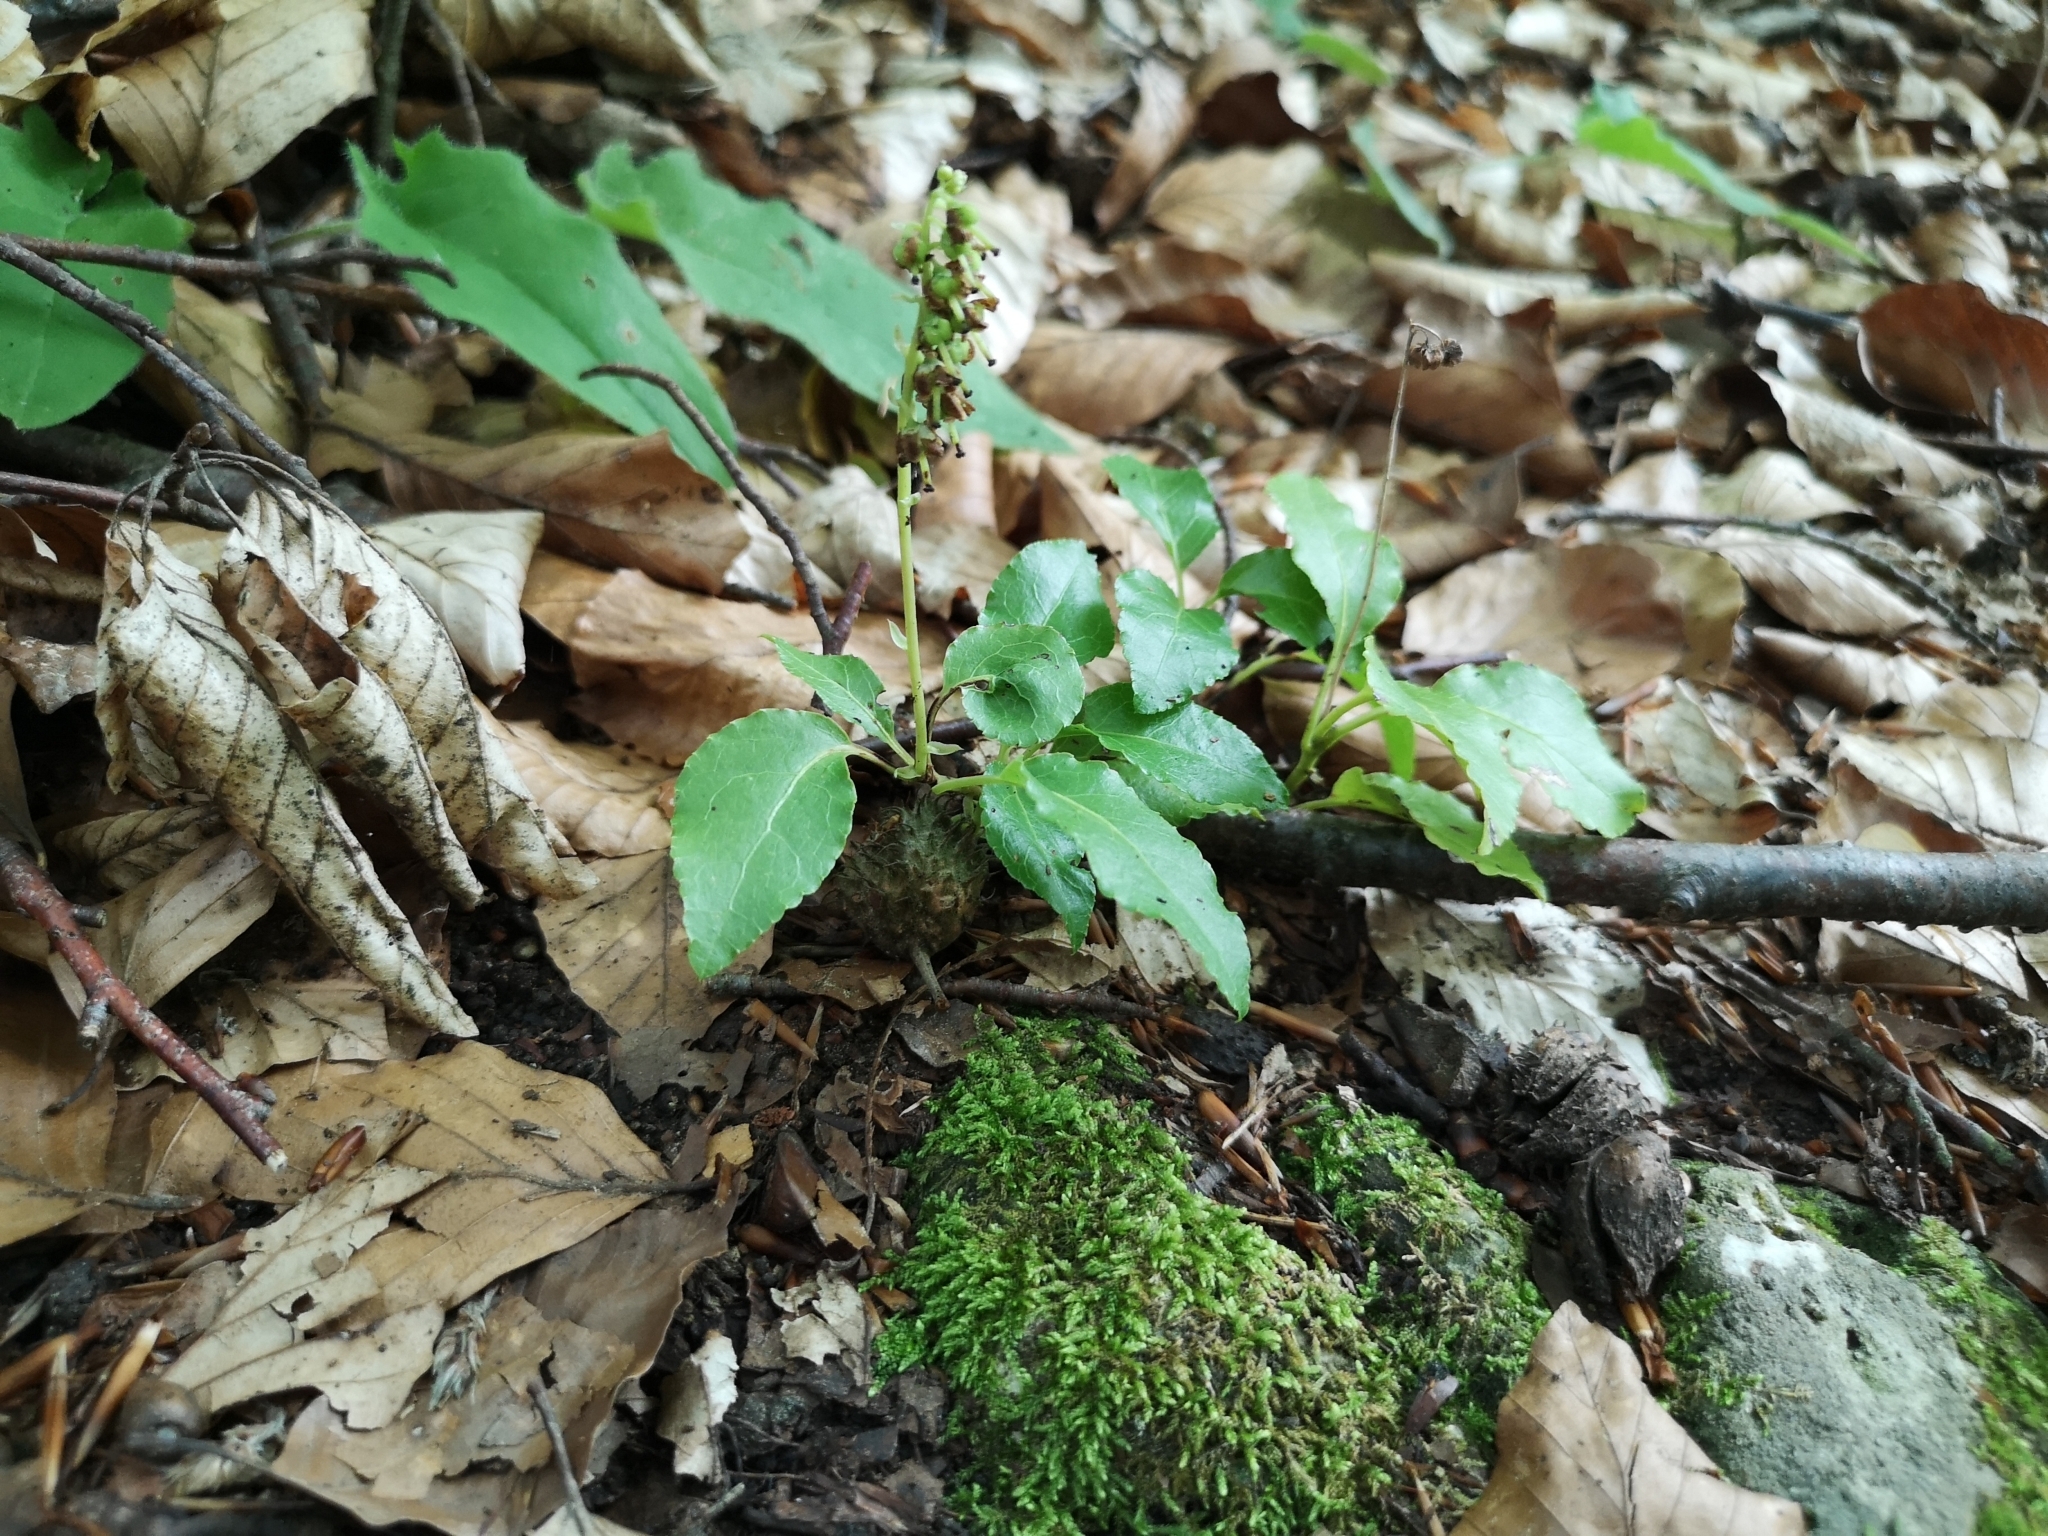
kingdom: Plantae
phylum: Tracheophyta
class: Magnoliopsida
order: Ericales
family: Ericaceae
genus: Orthilia
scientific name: Orthilia secunda
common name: One-sided orthilia
